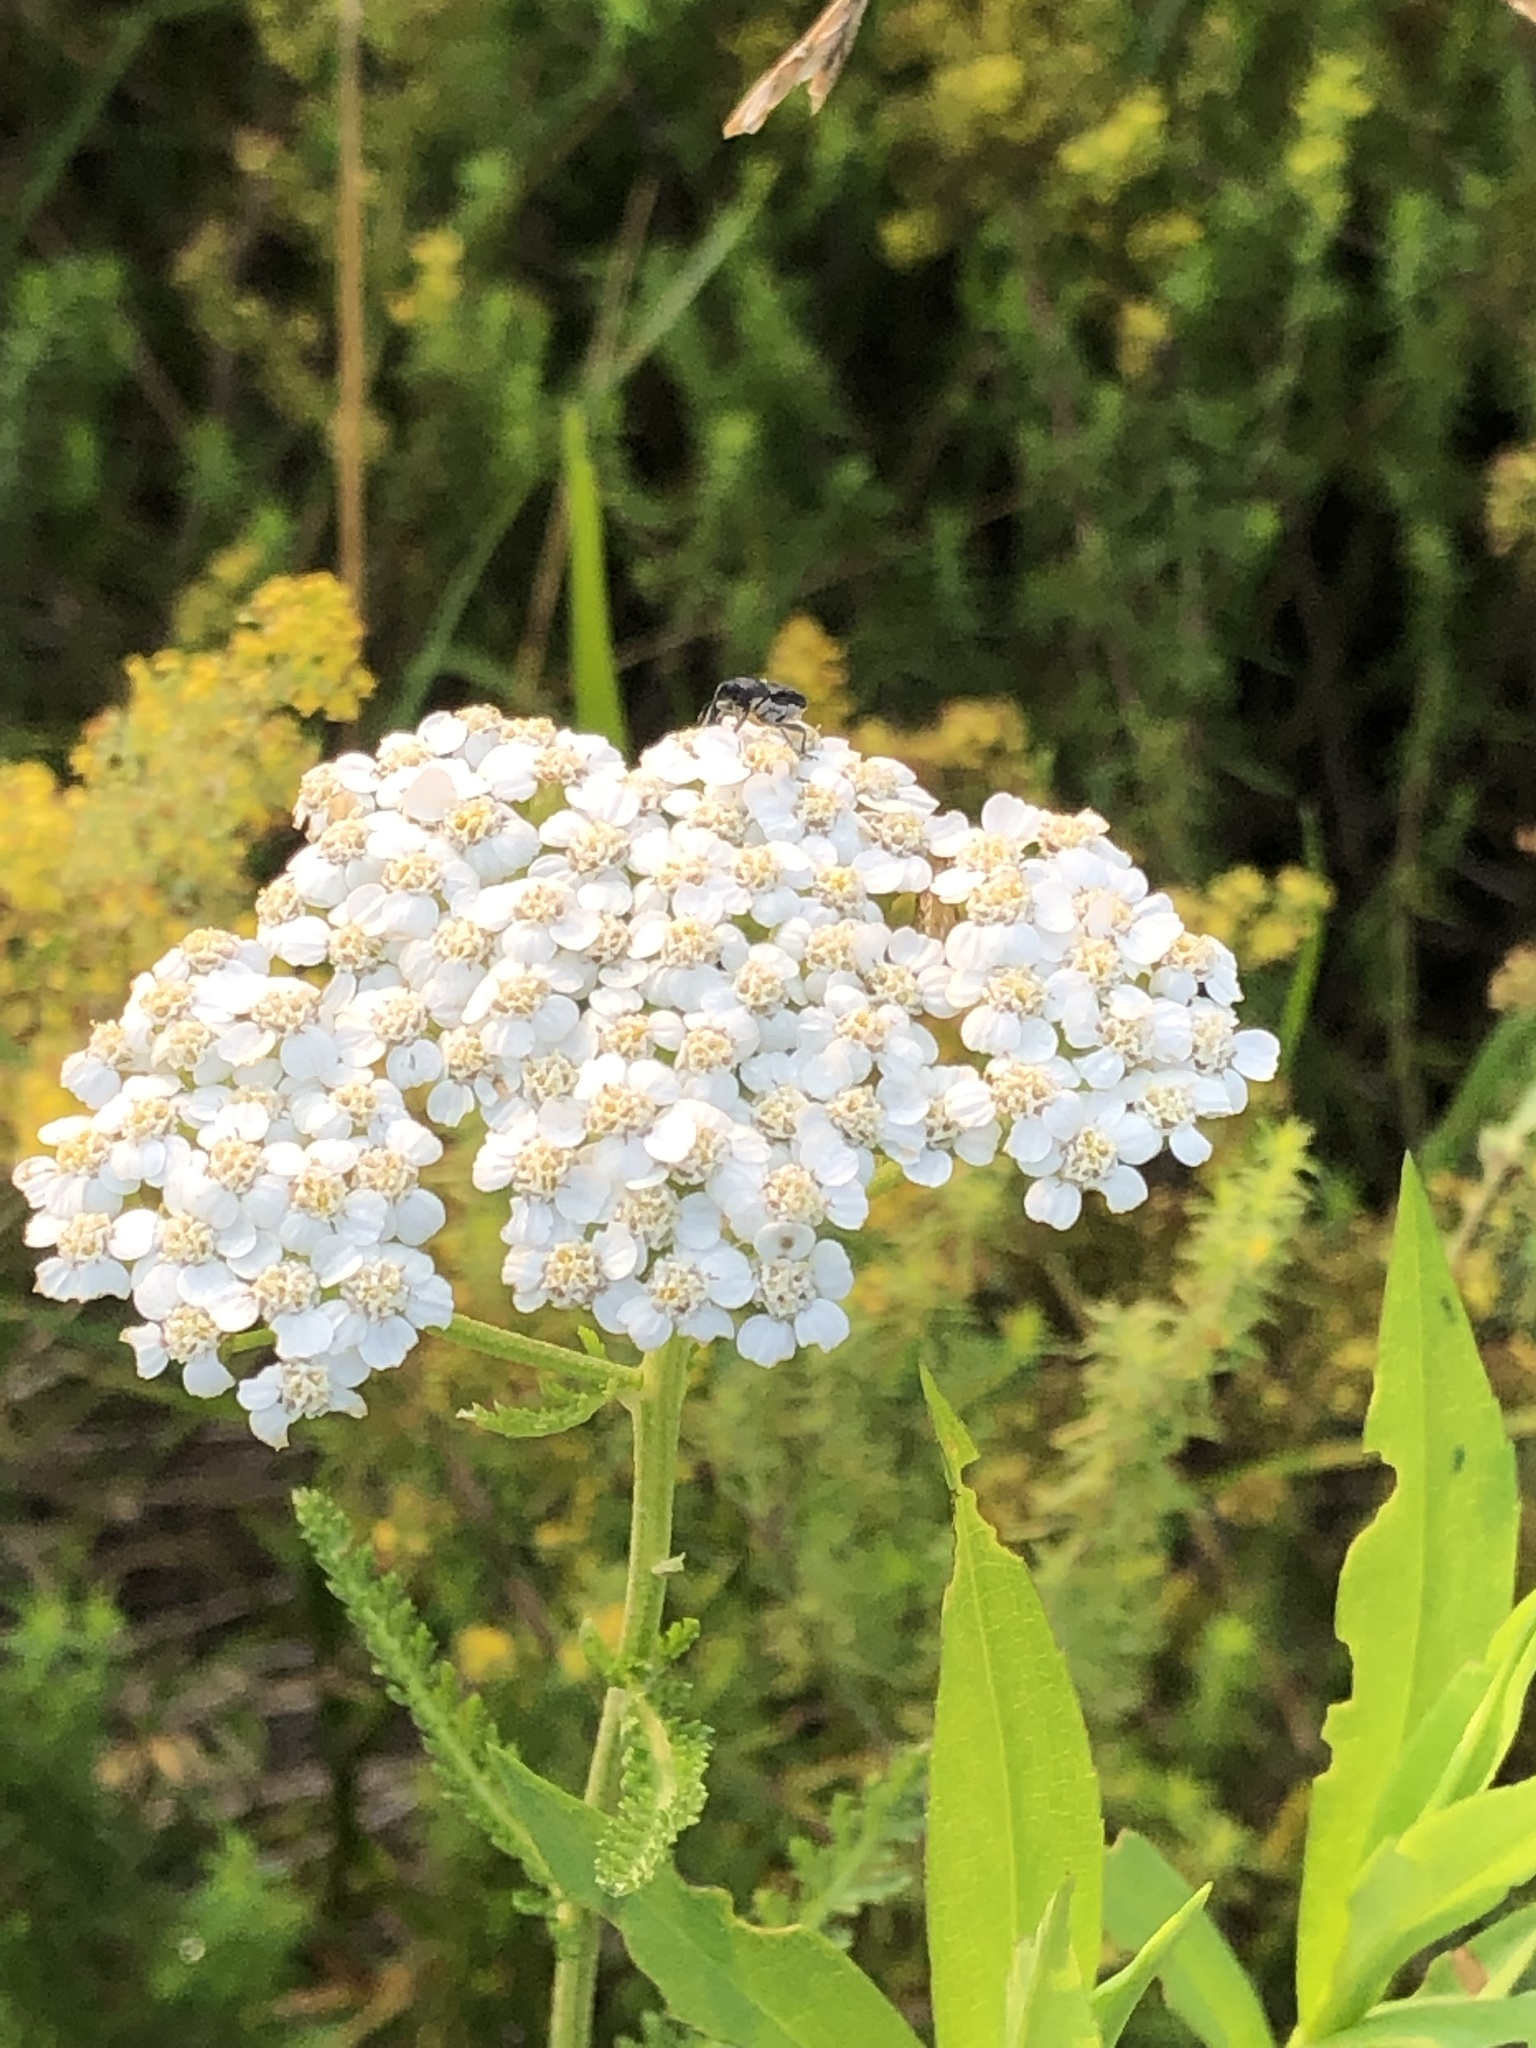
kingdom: Plantae
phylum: Tracheophyta
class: Magnoliopsida
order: Asterales
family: Asteraceae
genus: Achillea
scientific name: Achillea millefolium
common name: Yarrow
